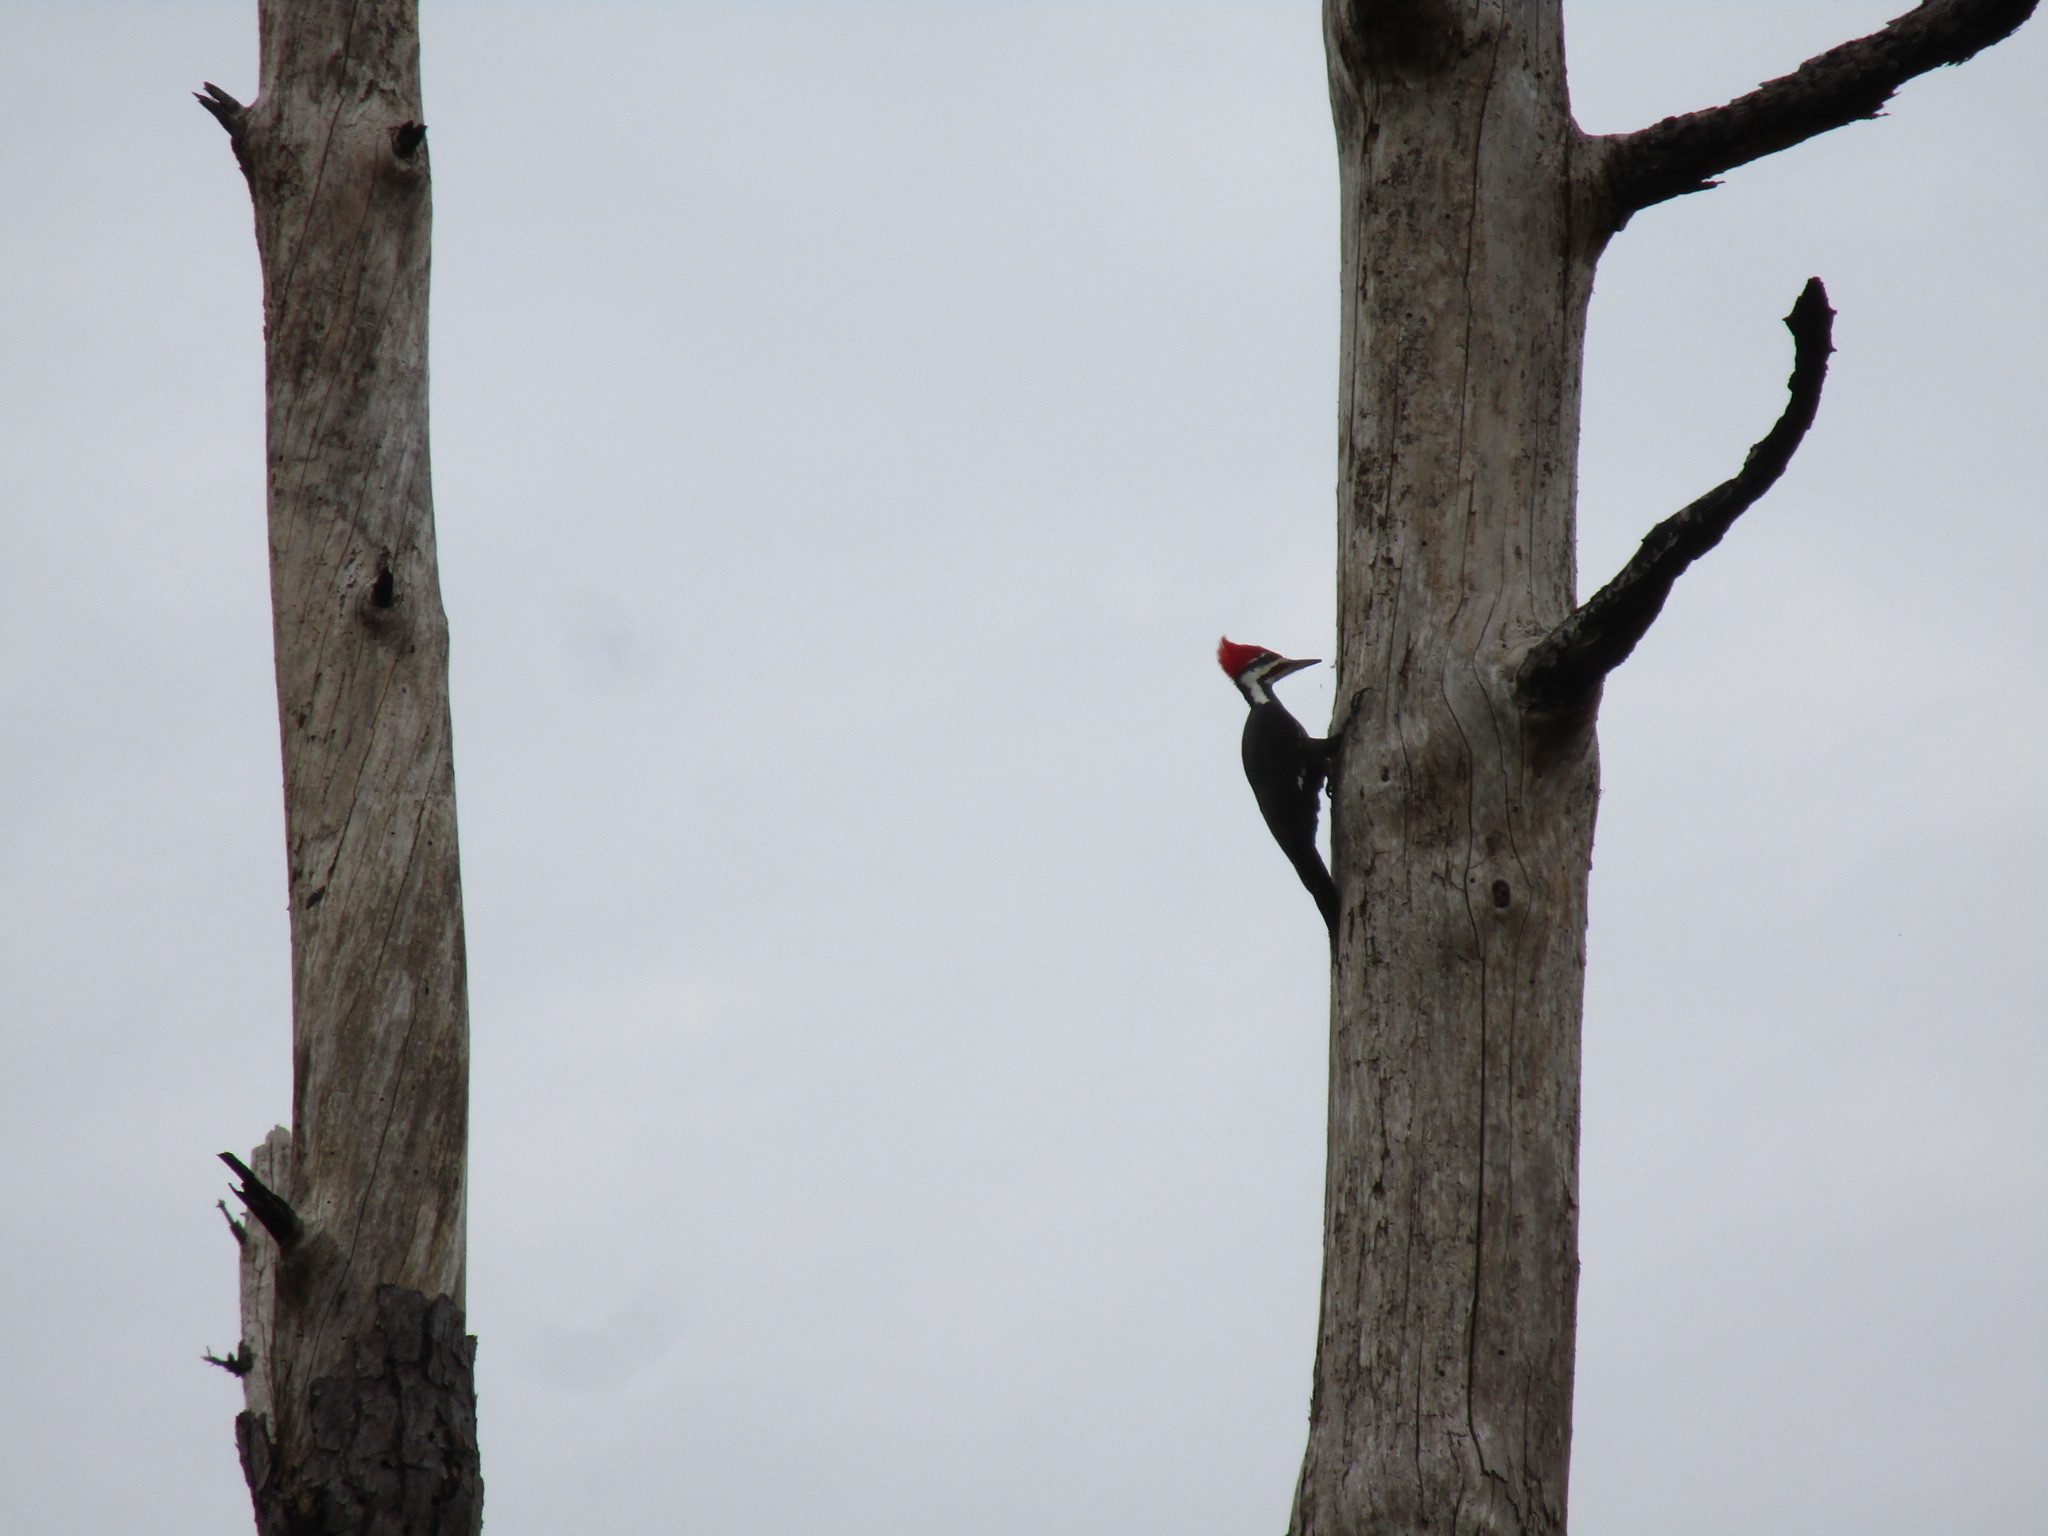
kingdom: Animalia
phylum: Chordata
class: Aves
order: Piciformes
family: Picidae
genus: Dryocopus
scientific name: Dryocopus pileatus
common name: Pileated woodpecker
